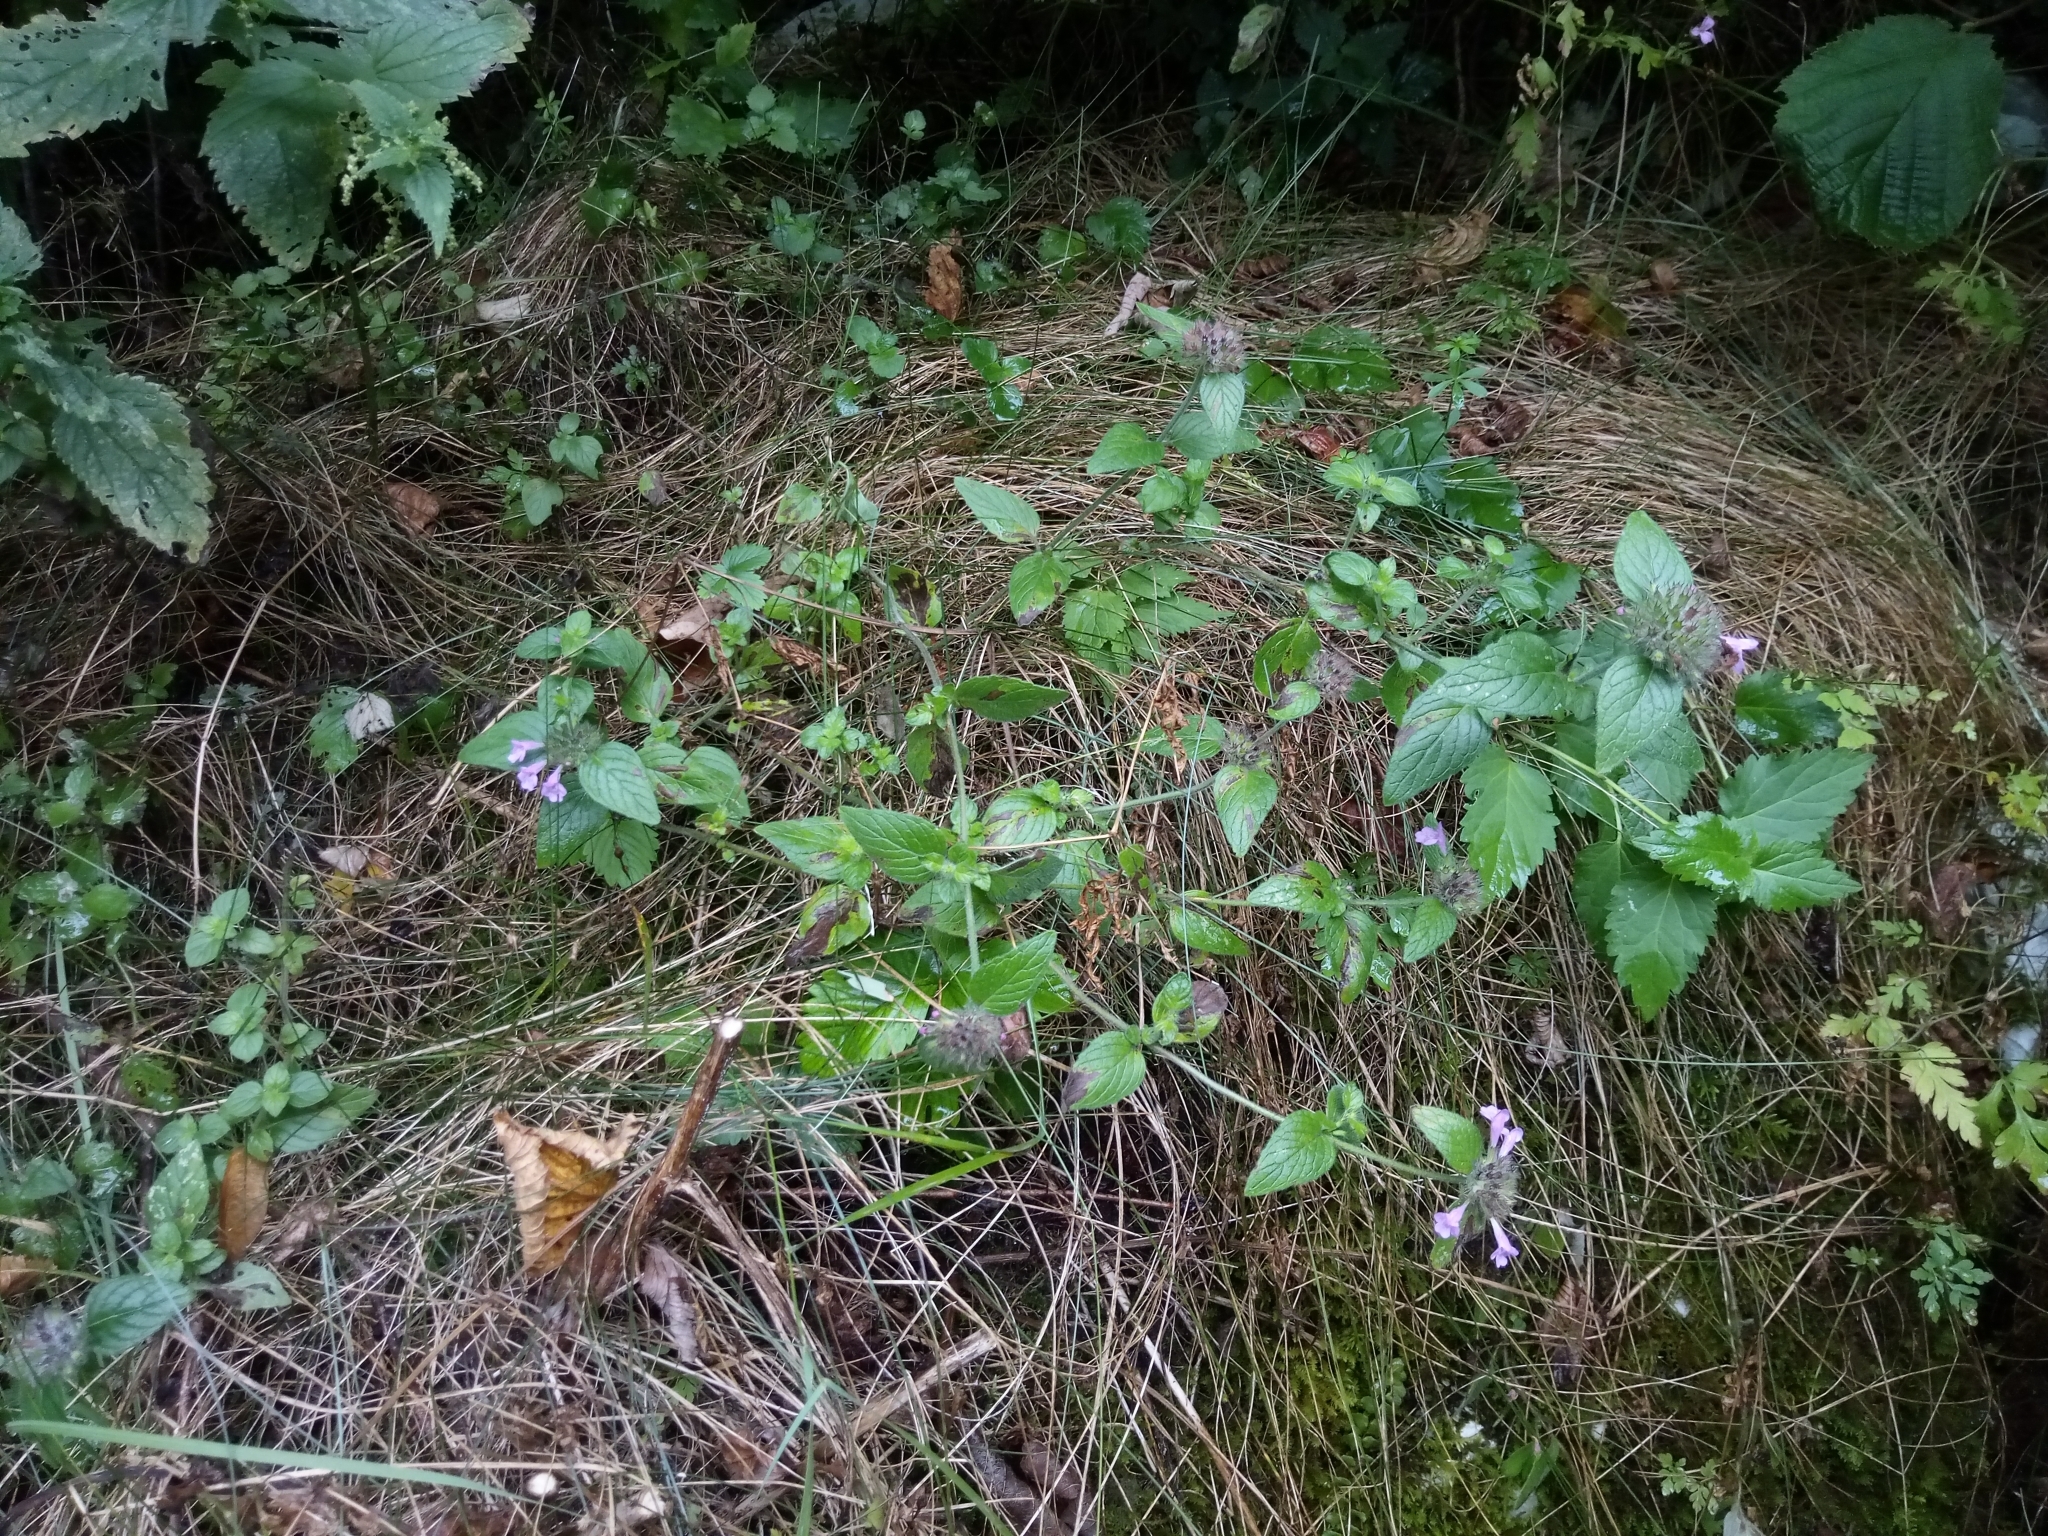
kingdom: Plantae
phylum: Tracheophyta
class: Magnoliopsida
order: Lamiales
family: Lamiaceae
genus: Clinopodium
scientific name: Clinopodium vulgare
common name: Wild basil
